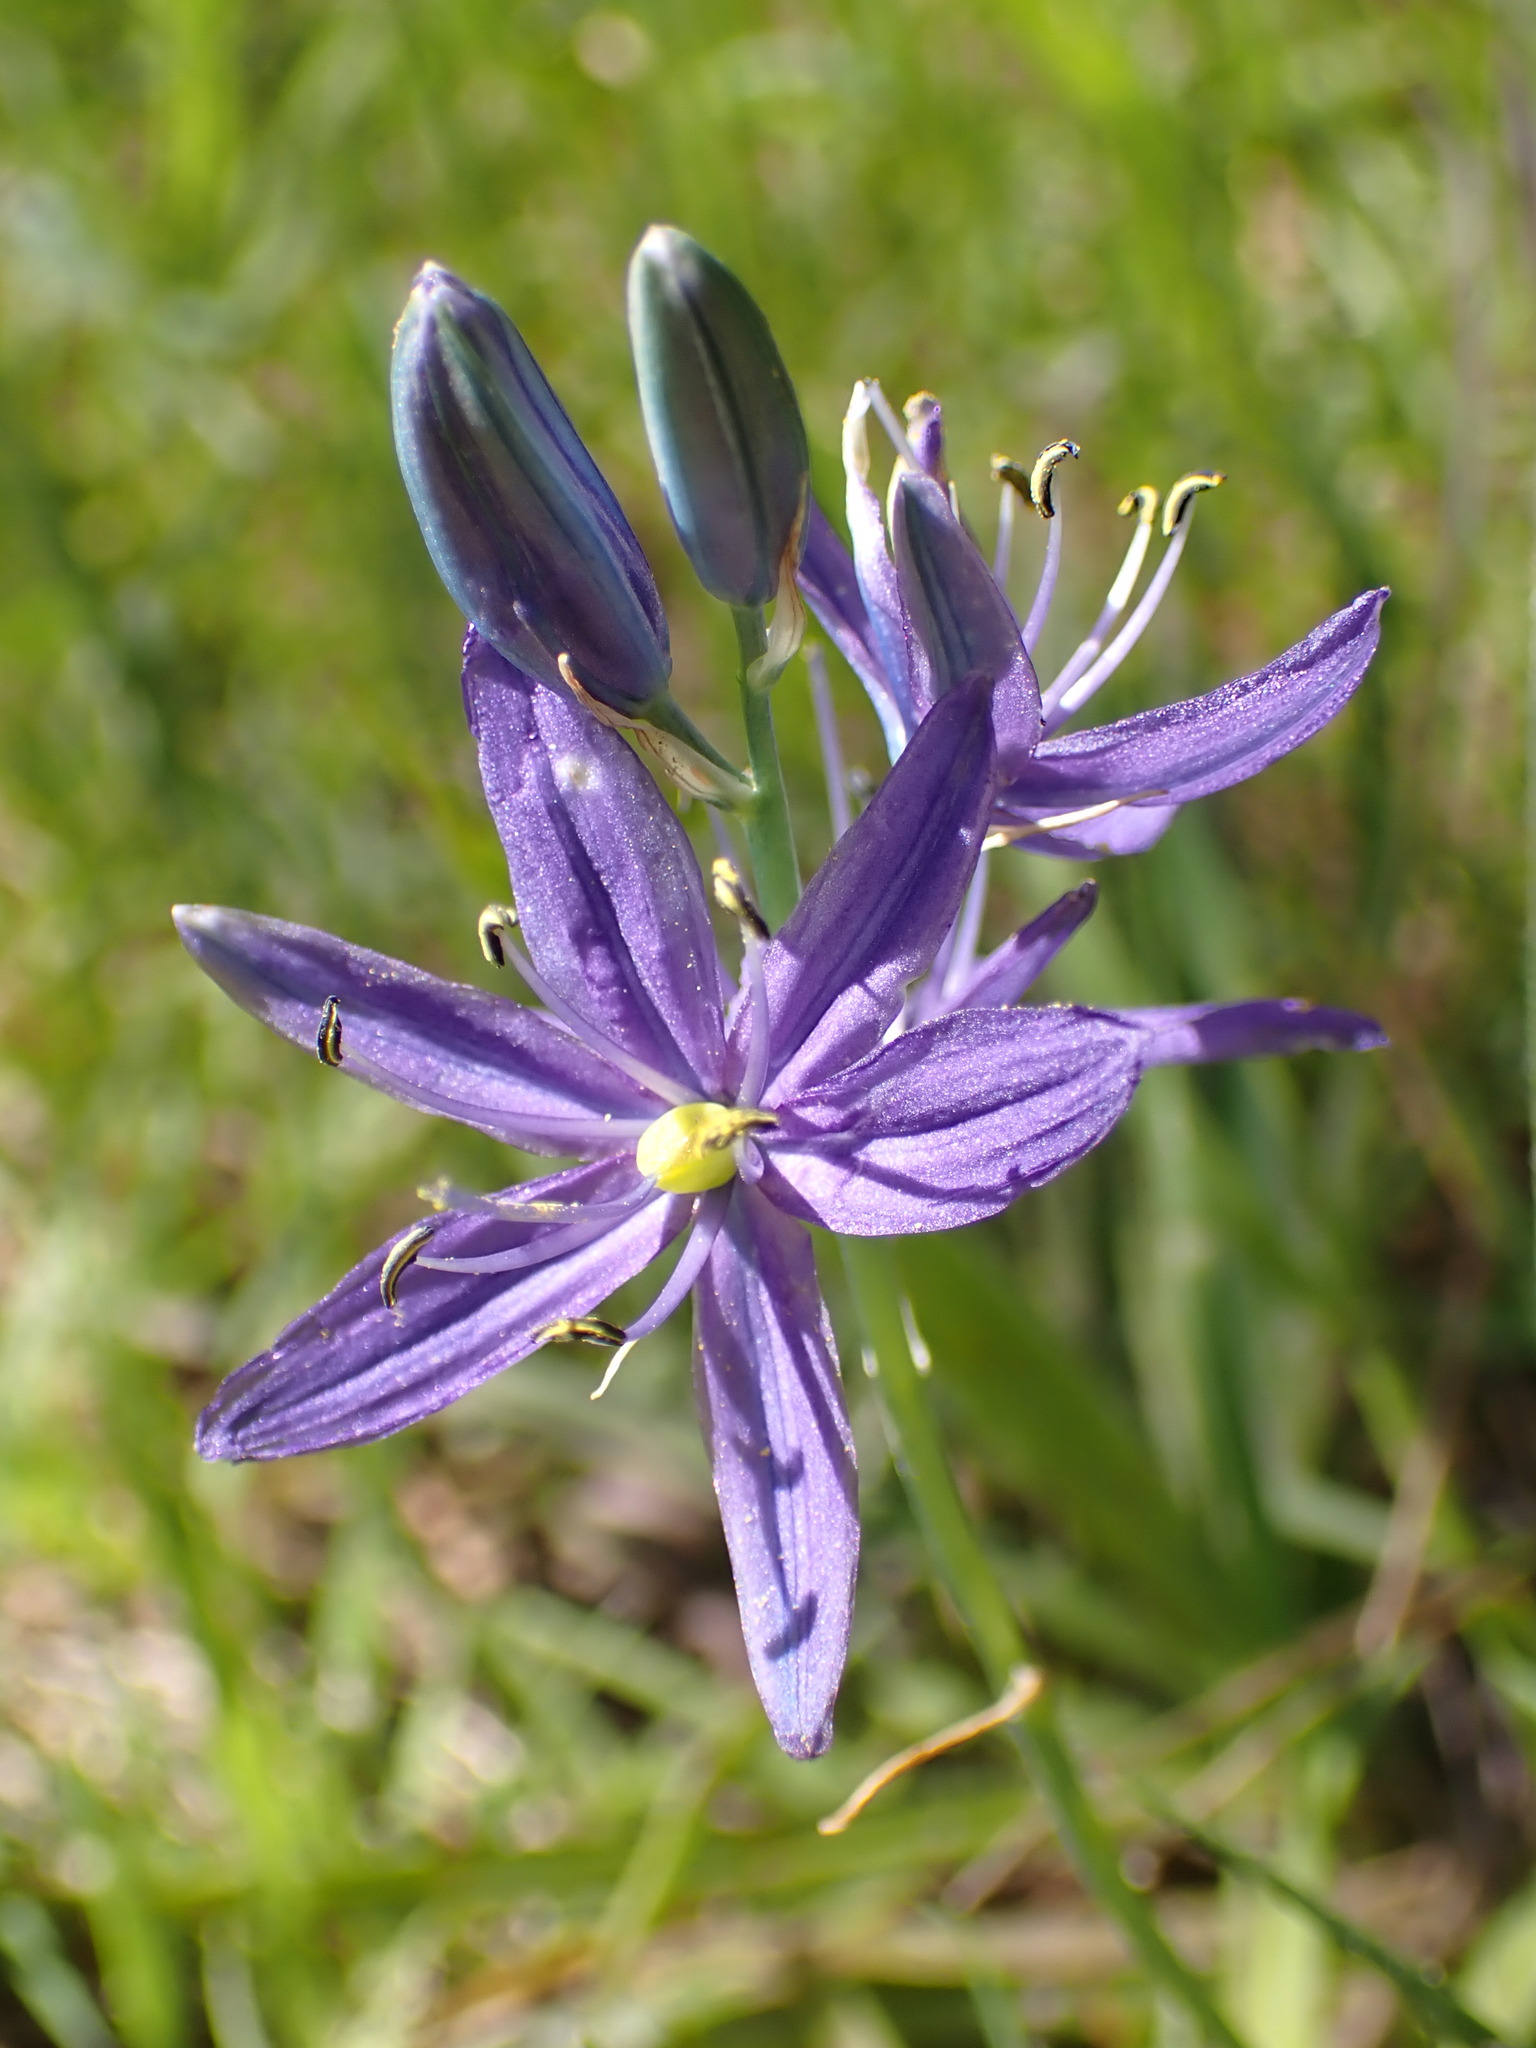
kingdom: Plantae
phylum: Tracheophyta
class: Liliopsida
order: Asparagales
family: Asparagaceae
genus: Camassia
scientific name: Camassia quamash
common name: Common camas
